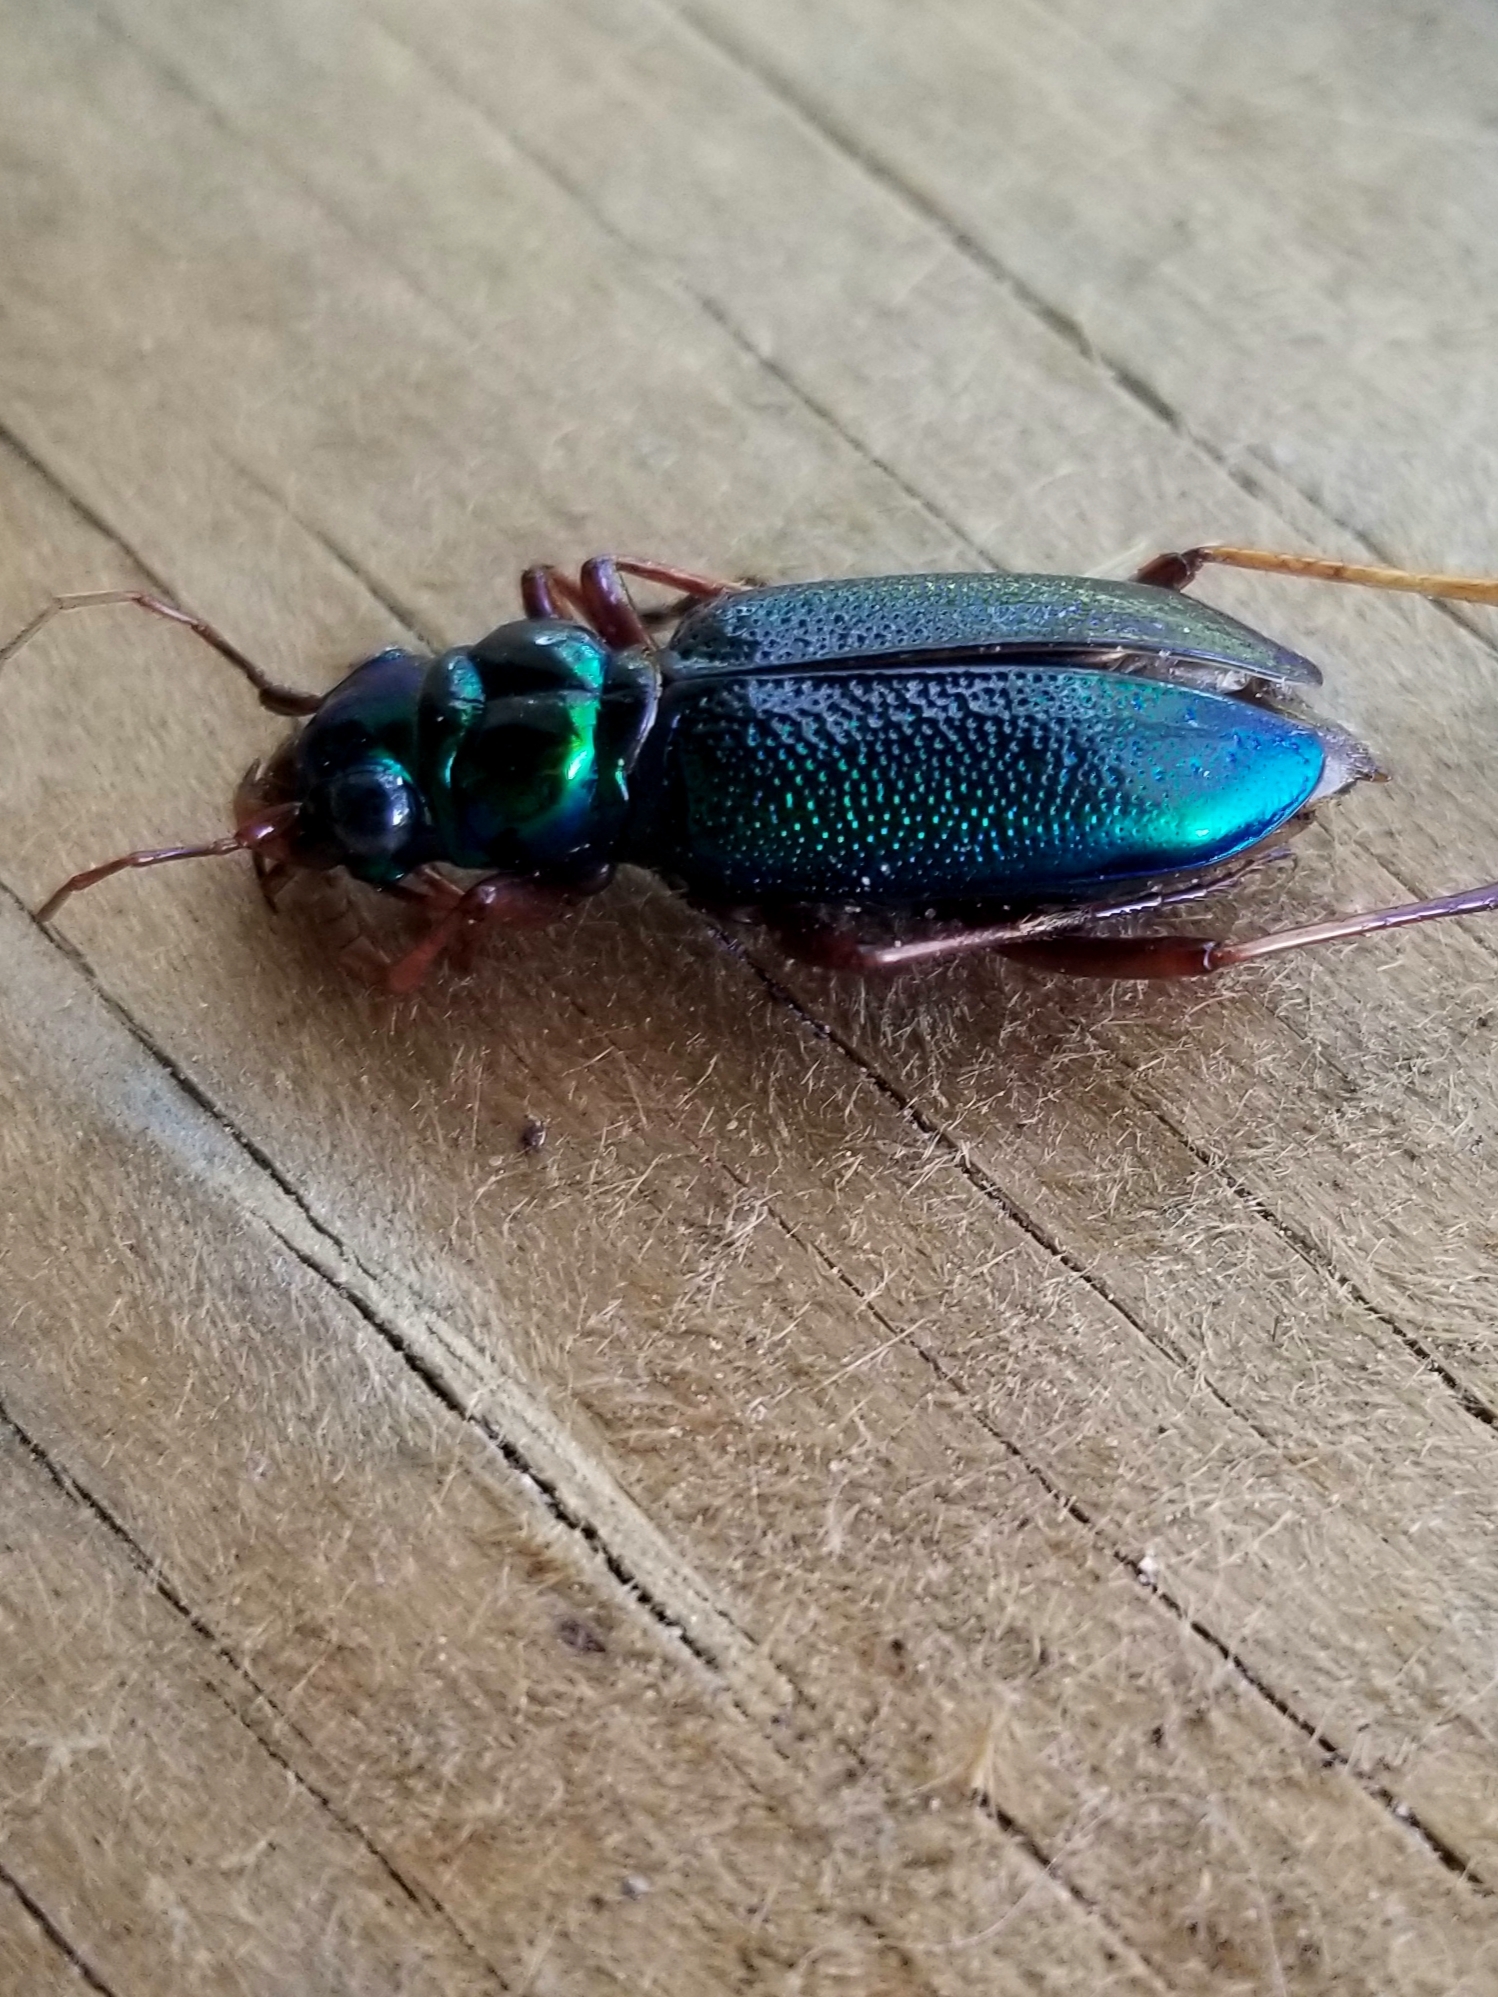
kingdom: Animalia
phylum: Arthropoda
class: Insecta
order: Coleoptera
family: Carabidae
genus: Tetracha
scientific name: Tetracha virginica
